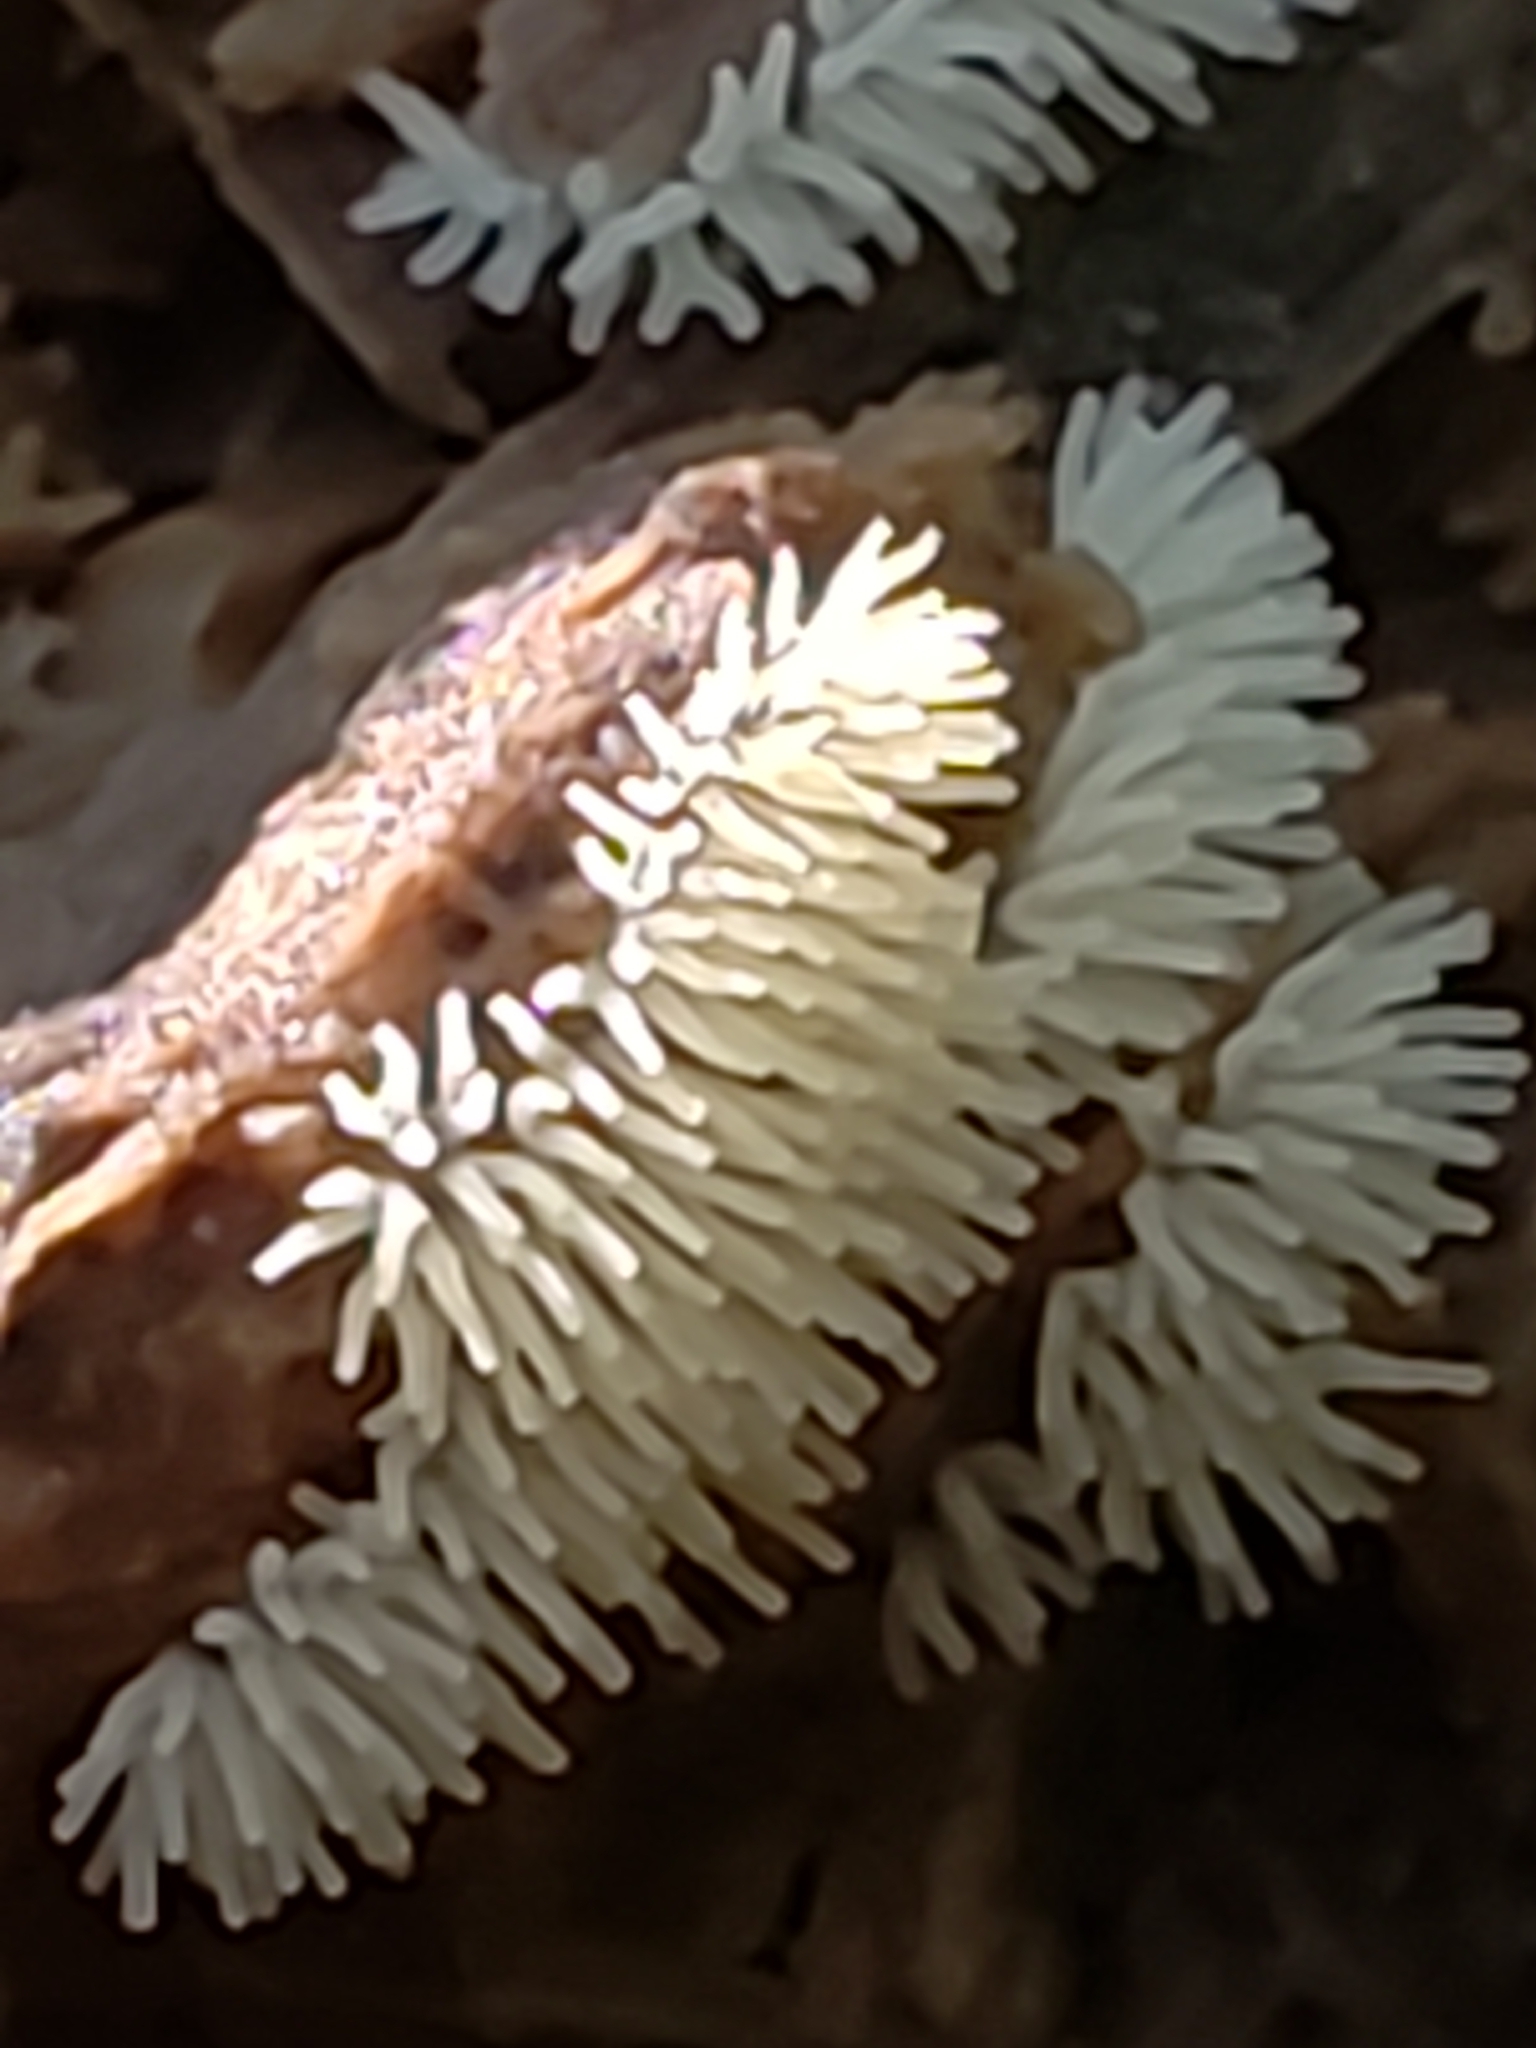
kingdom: Protozoa
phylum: Mycetozoa
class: Protosteliomycetes
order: Ceratiomyxales
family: Ceratiomyxaceae
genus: Ceratiomyxa
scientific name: Ceratiomyxa fruticulosa
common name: Honeycomb coral slime mold
